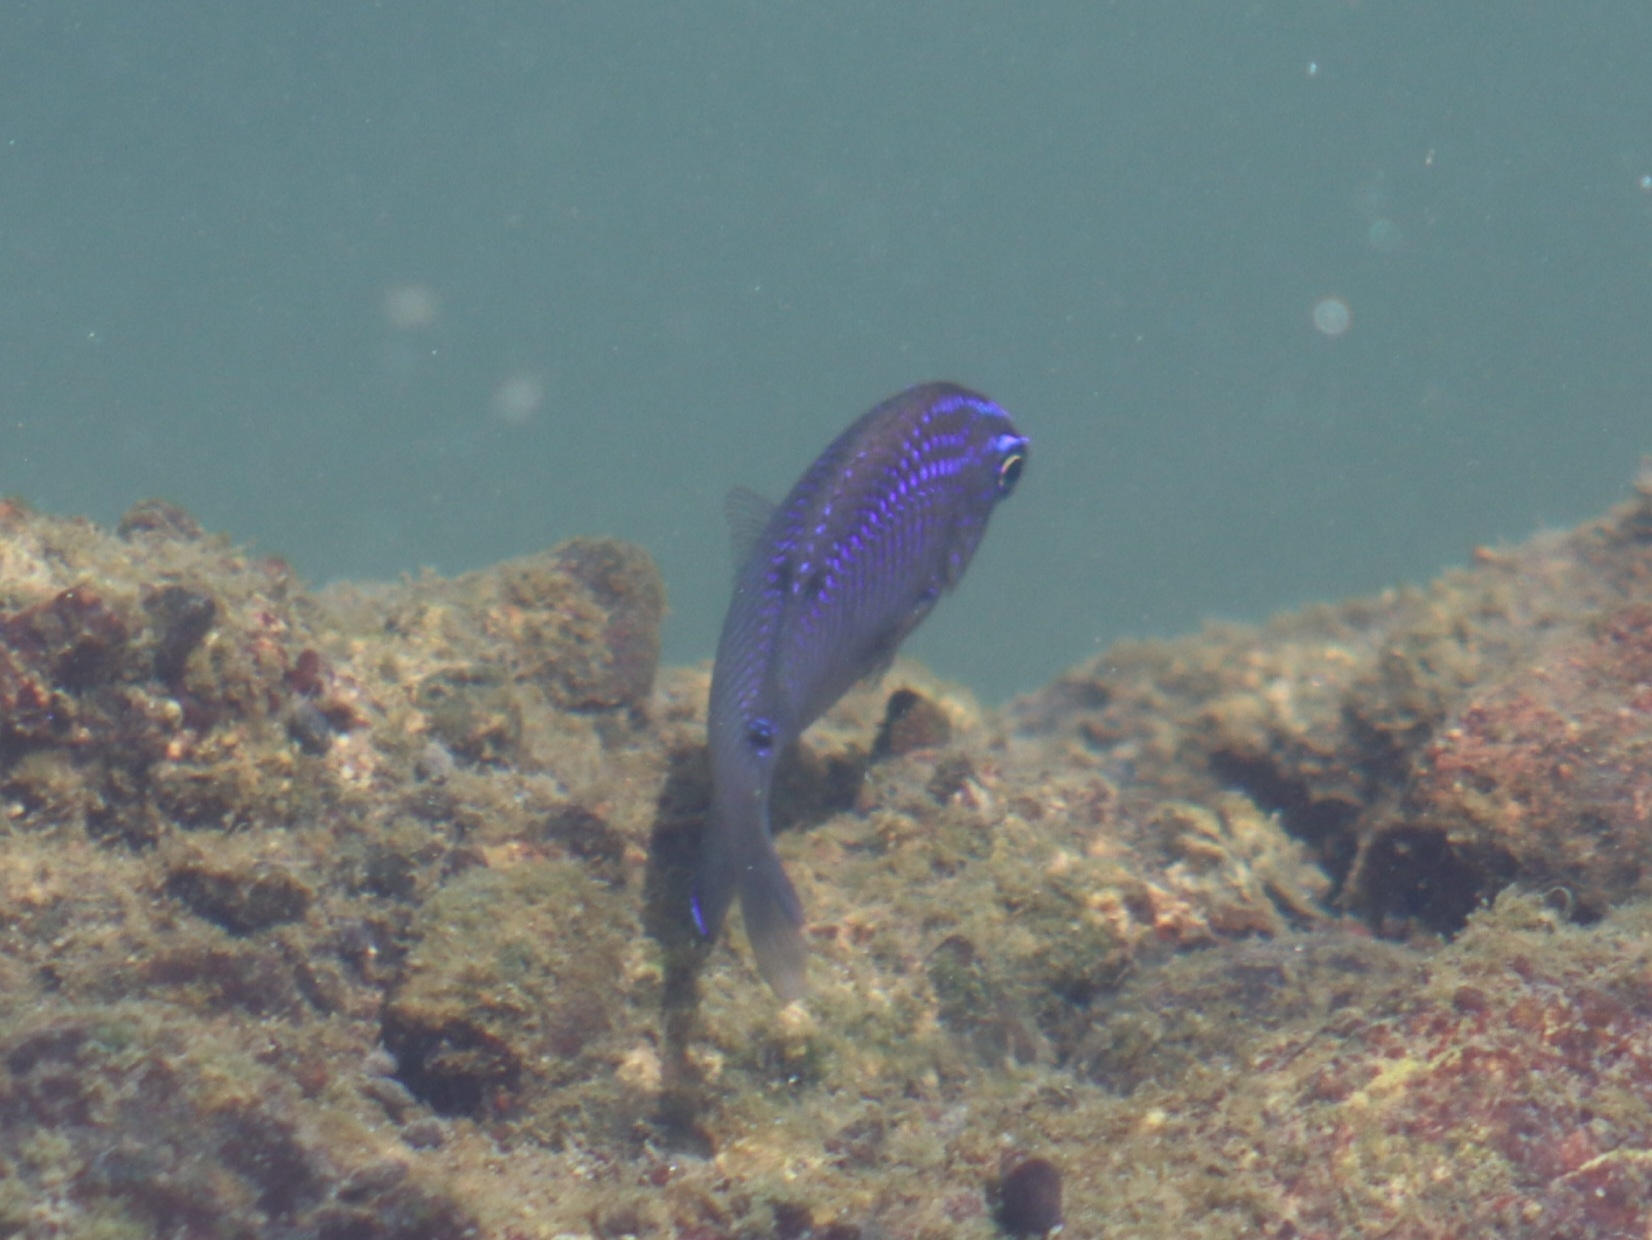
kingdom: Animalia
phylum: Chordata
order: Perciformes
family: Pomacentridae
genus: Stegastes
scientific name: Stegastes acapulcoensis
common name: Acapulco damselfish
